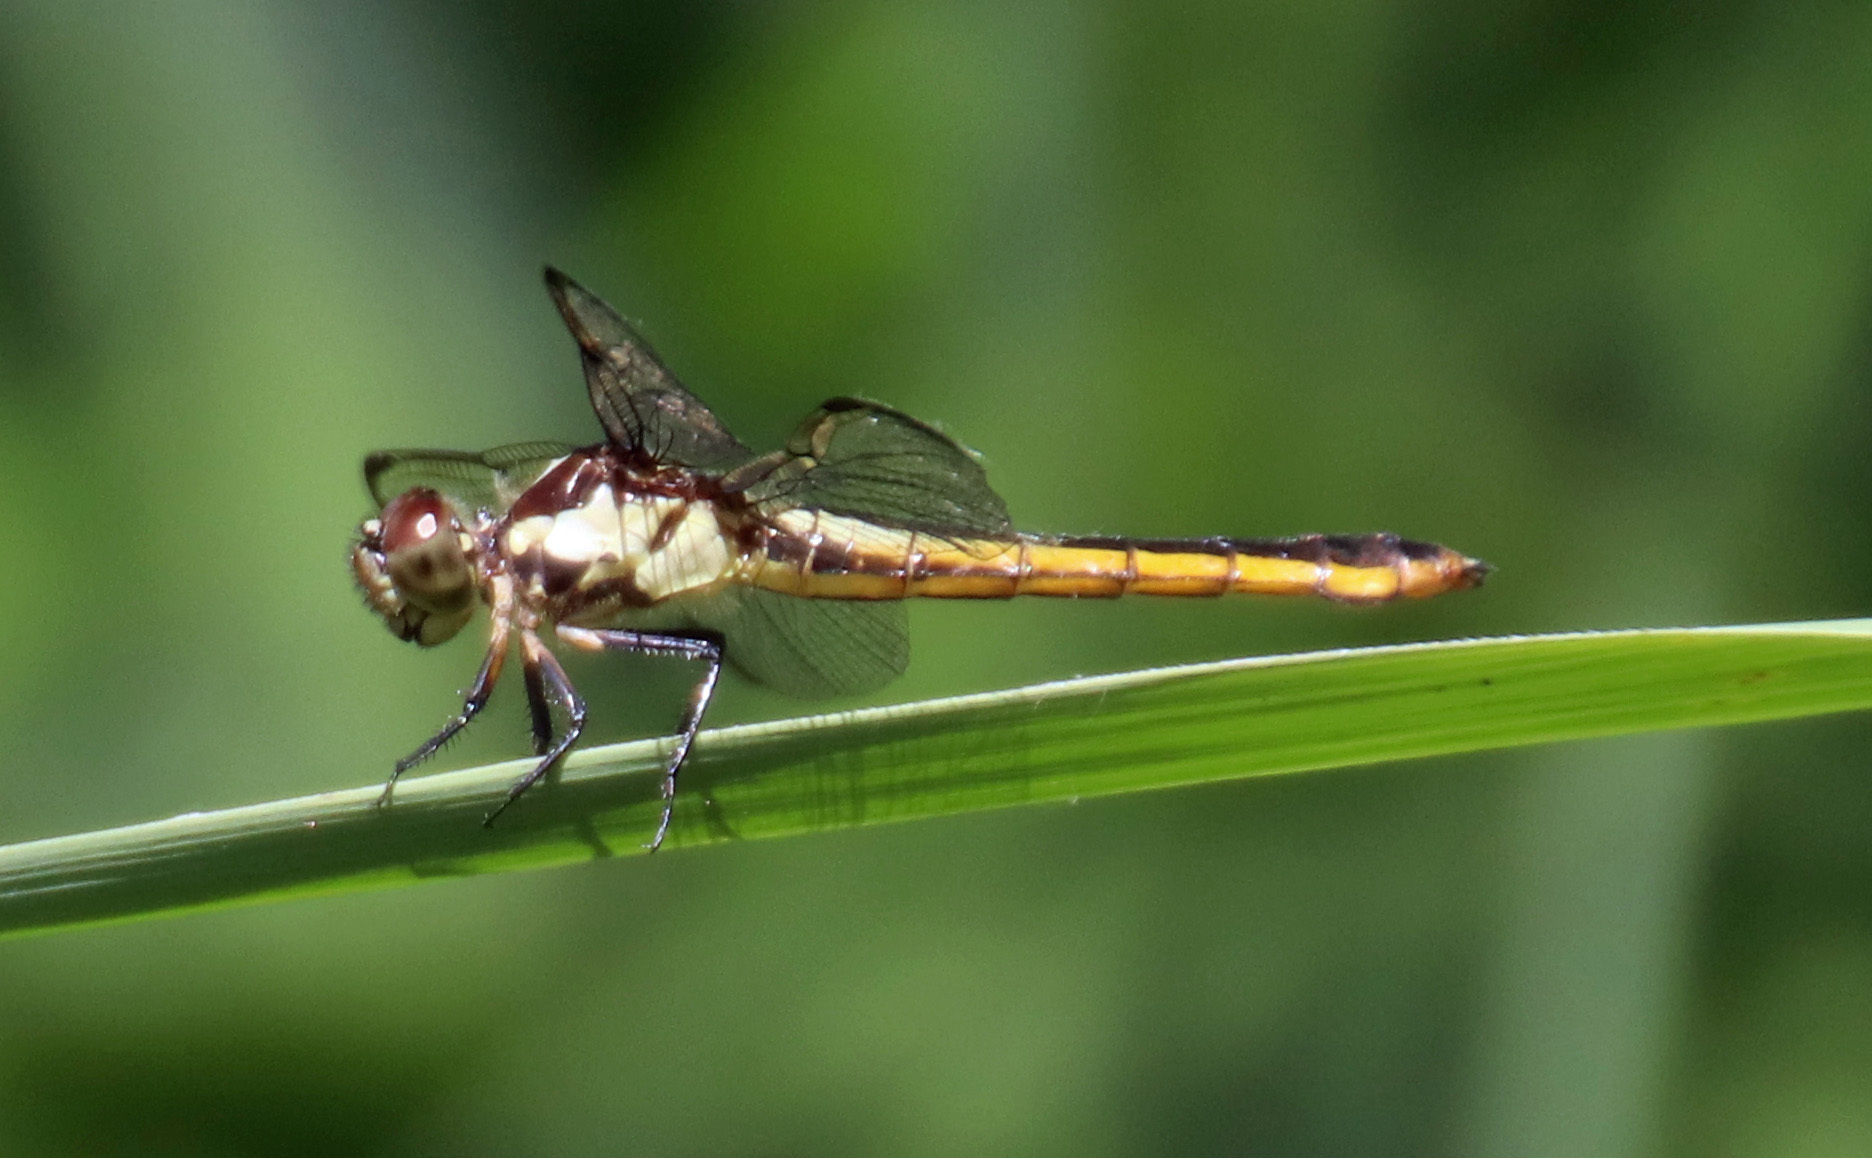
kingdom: Animalia
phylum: Arthropoda
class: Insecta
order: Odonata
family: Libellulidae
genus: Libellula
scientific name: Libellula incesta
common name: Slaty skimmer
